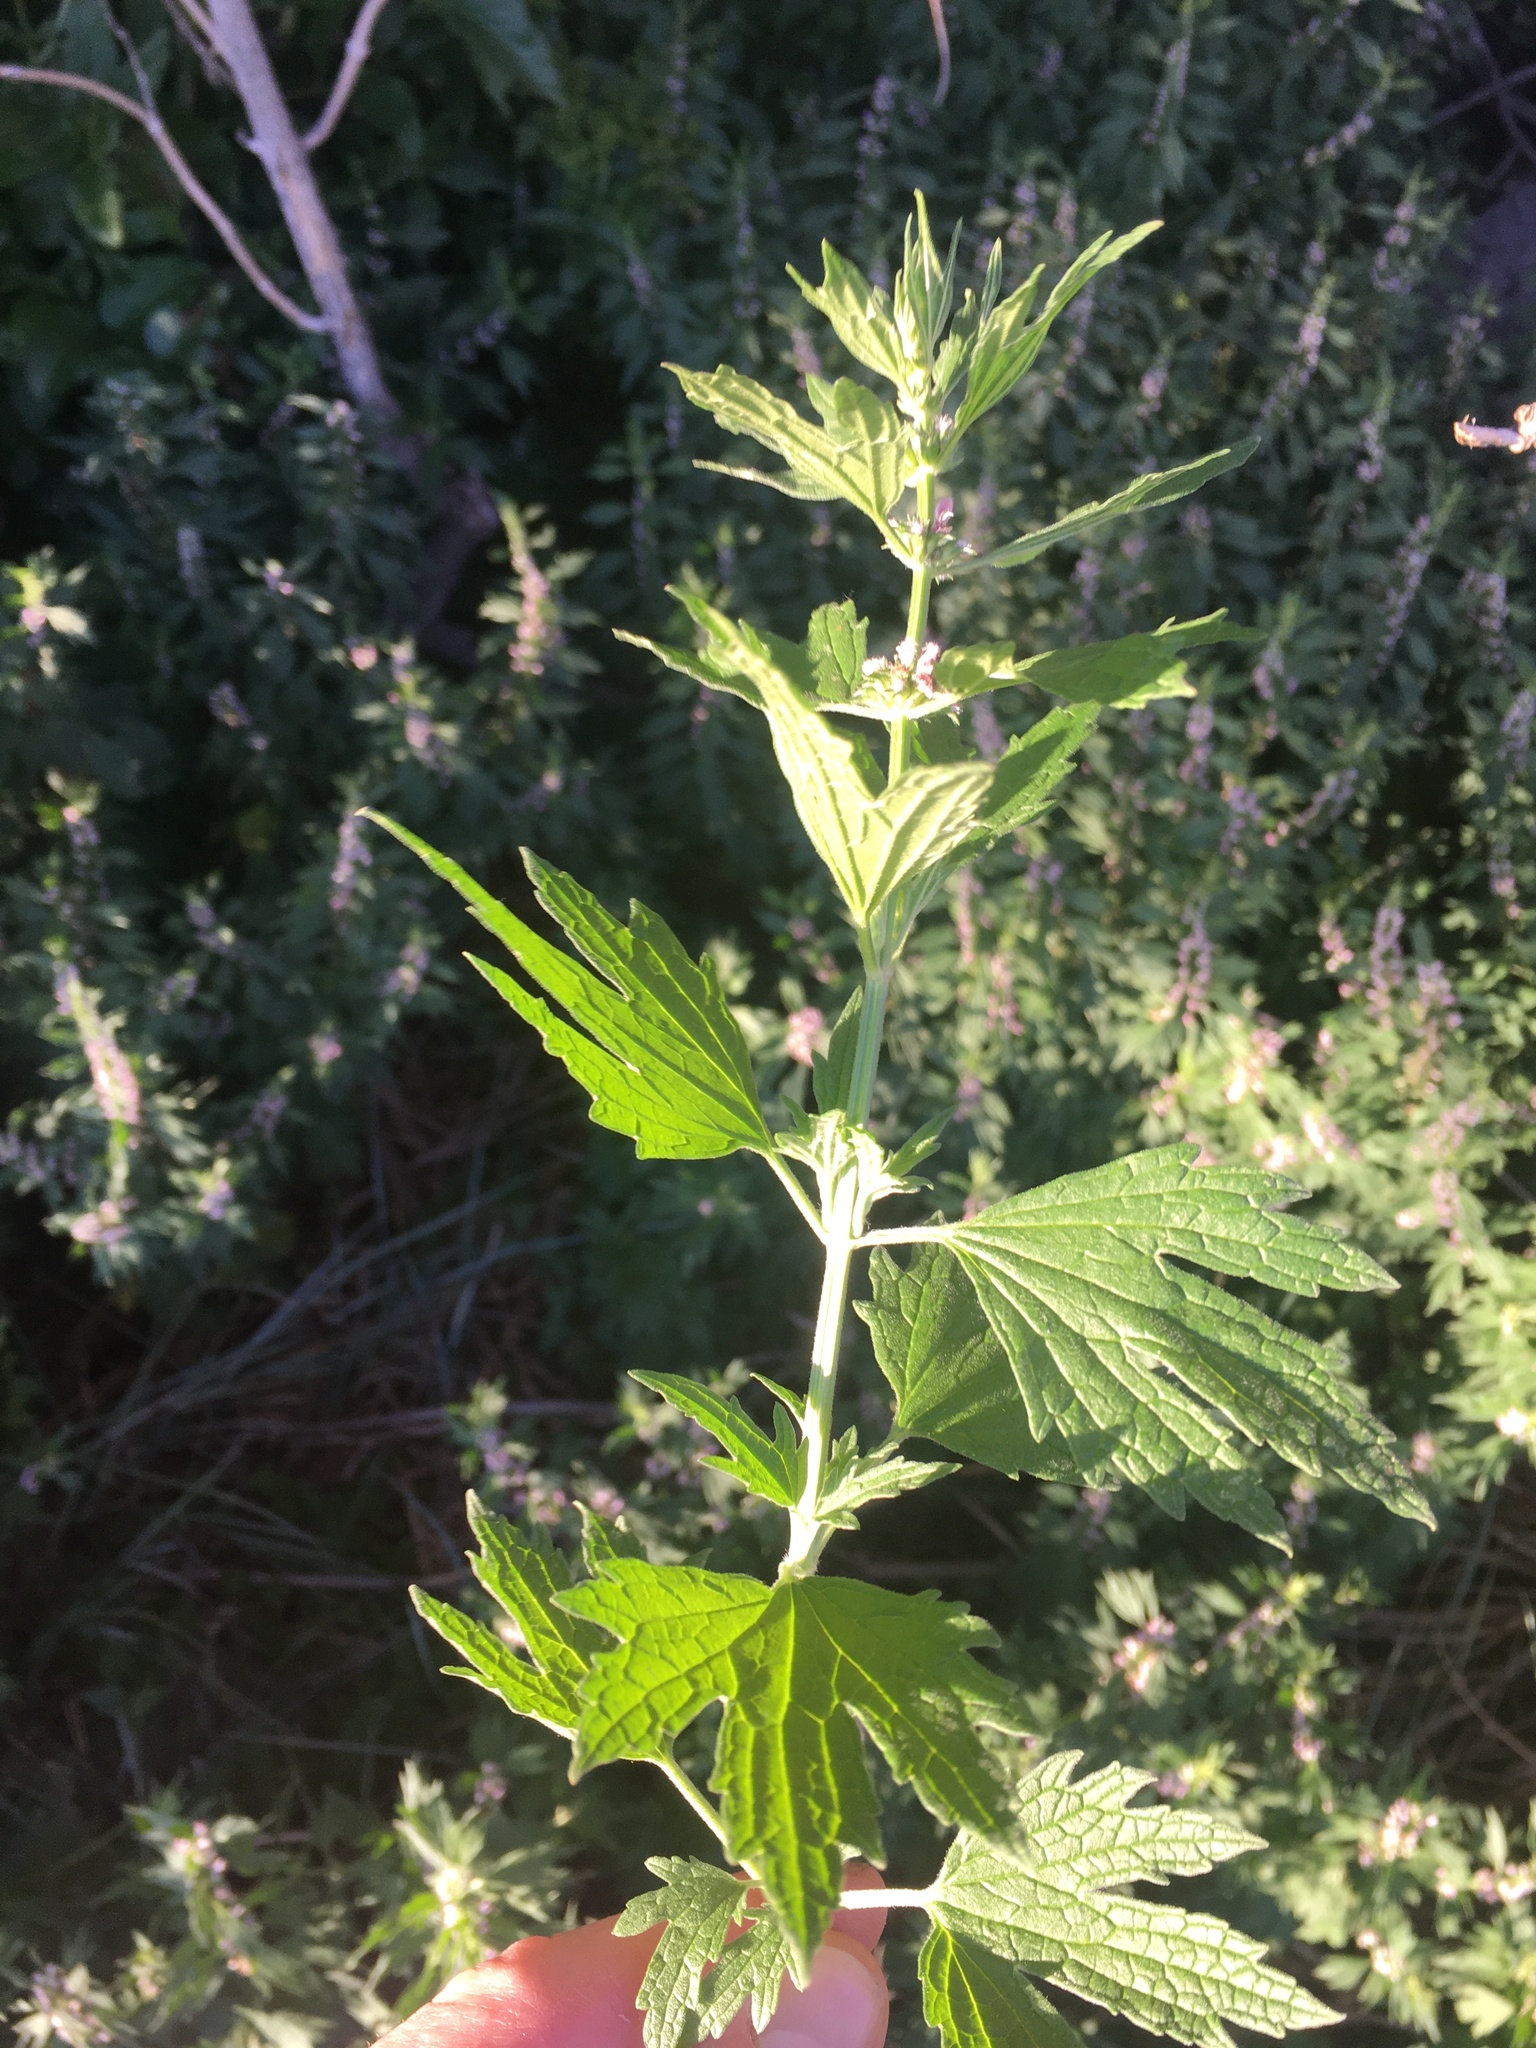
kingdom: Plantae
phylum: Tracheophyta
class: Magnoliopsida
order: Lamiales
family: Lamiaceae
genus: Leonurus
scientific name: Leonurus cardiaca
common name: Motherwort
